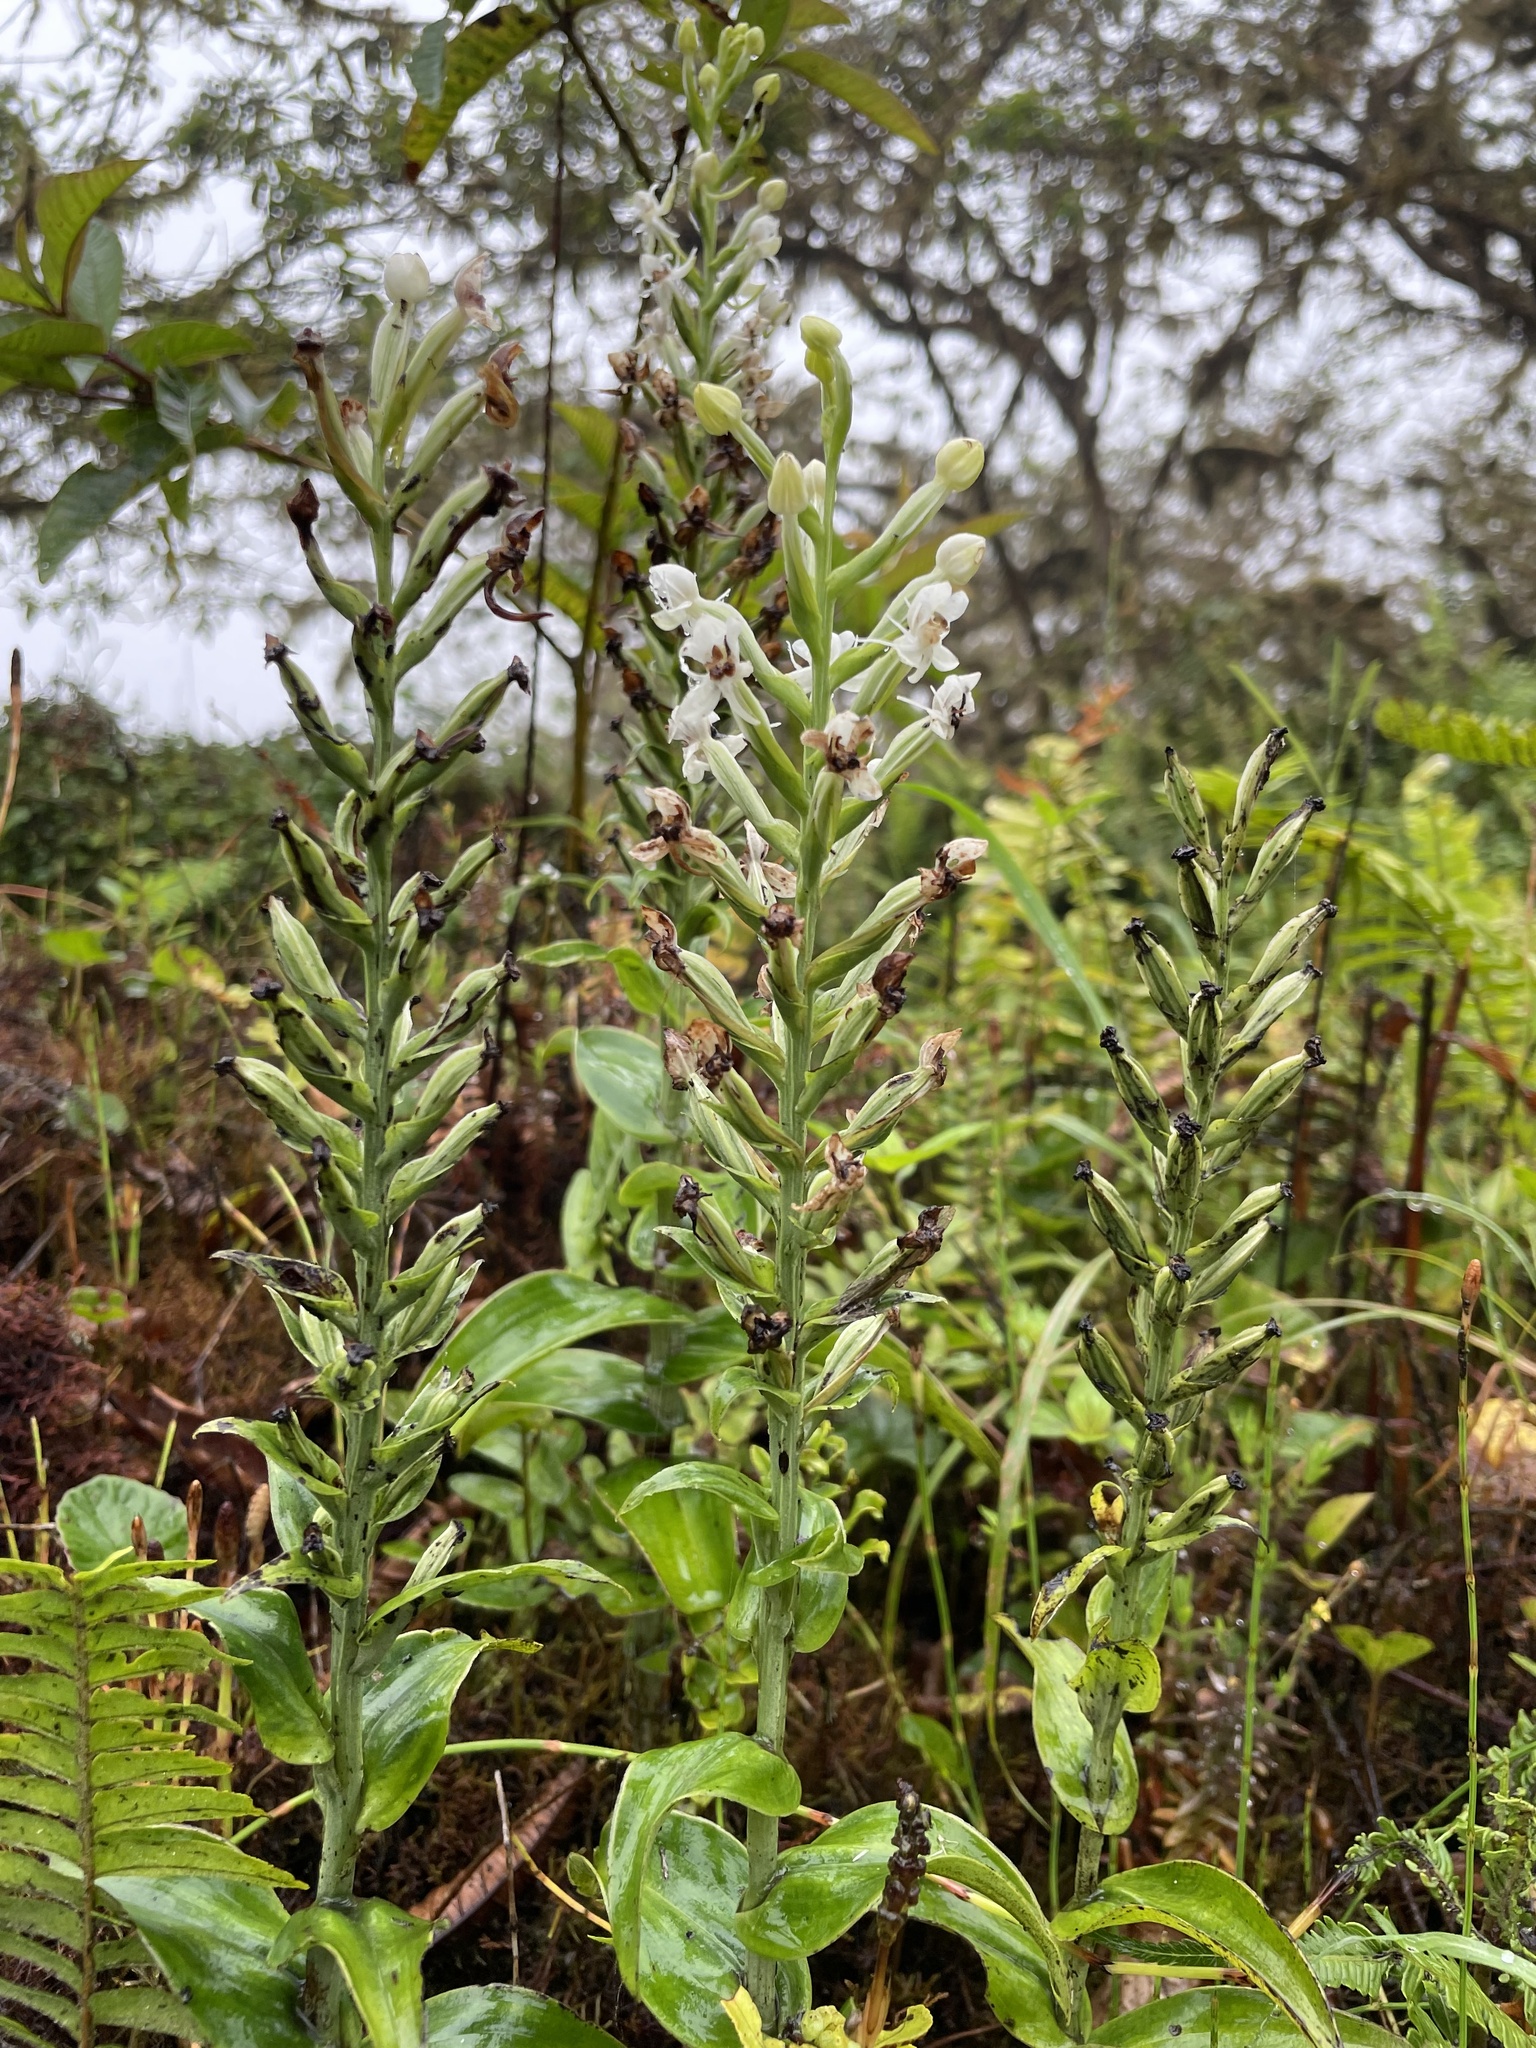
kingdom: Plantae
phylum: Tracheophyta
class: Liliopsida
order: Asparagales
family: Orchidaceae
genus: Habenaria
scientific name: Habenaria monorrhiza
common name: Tropical bog orchid
